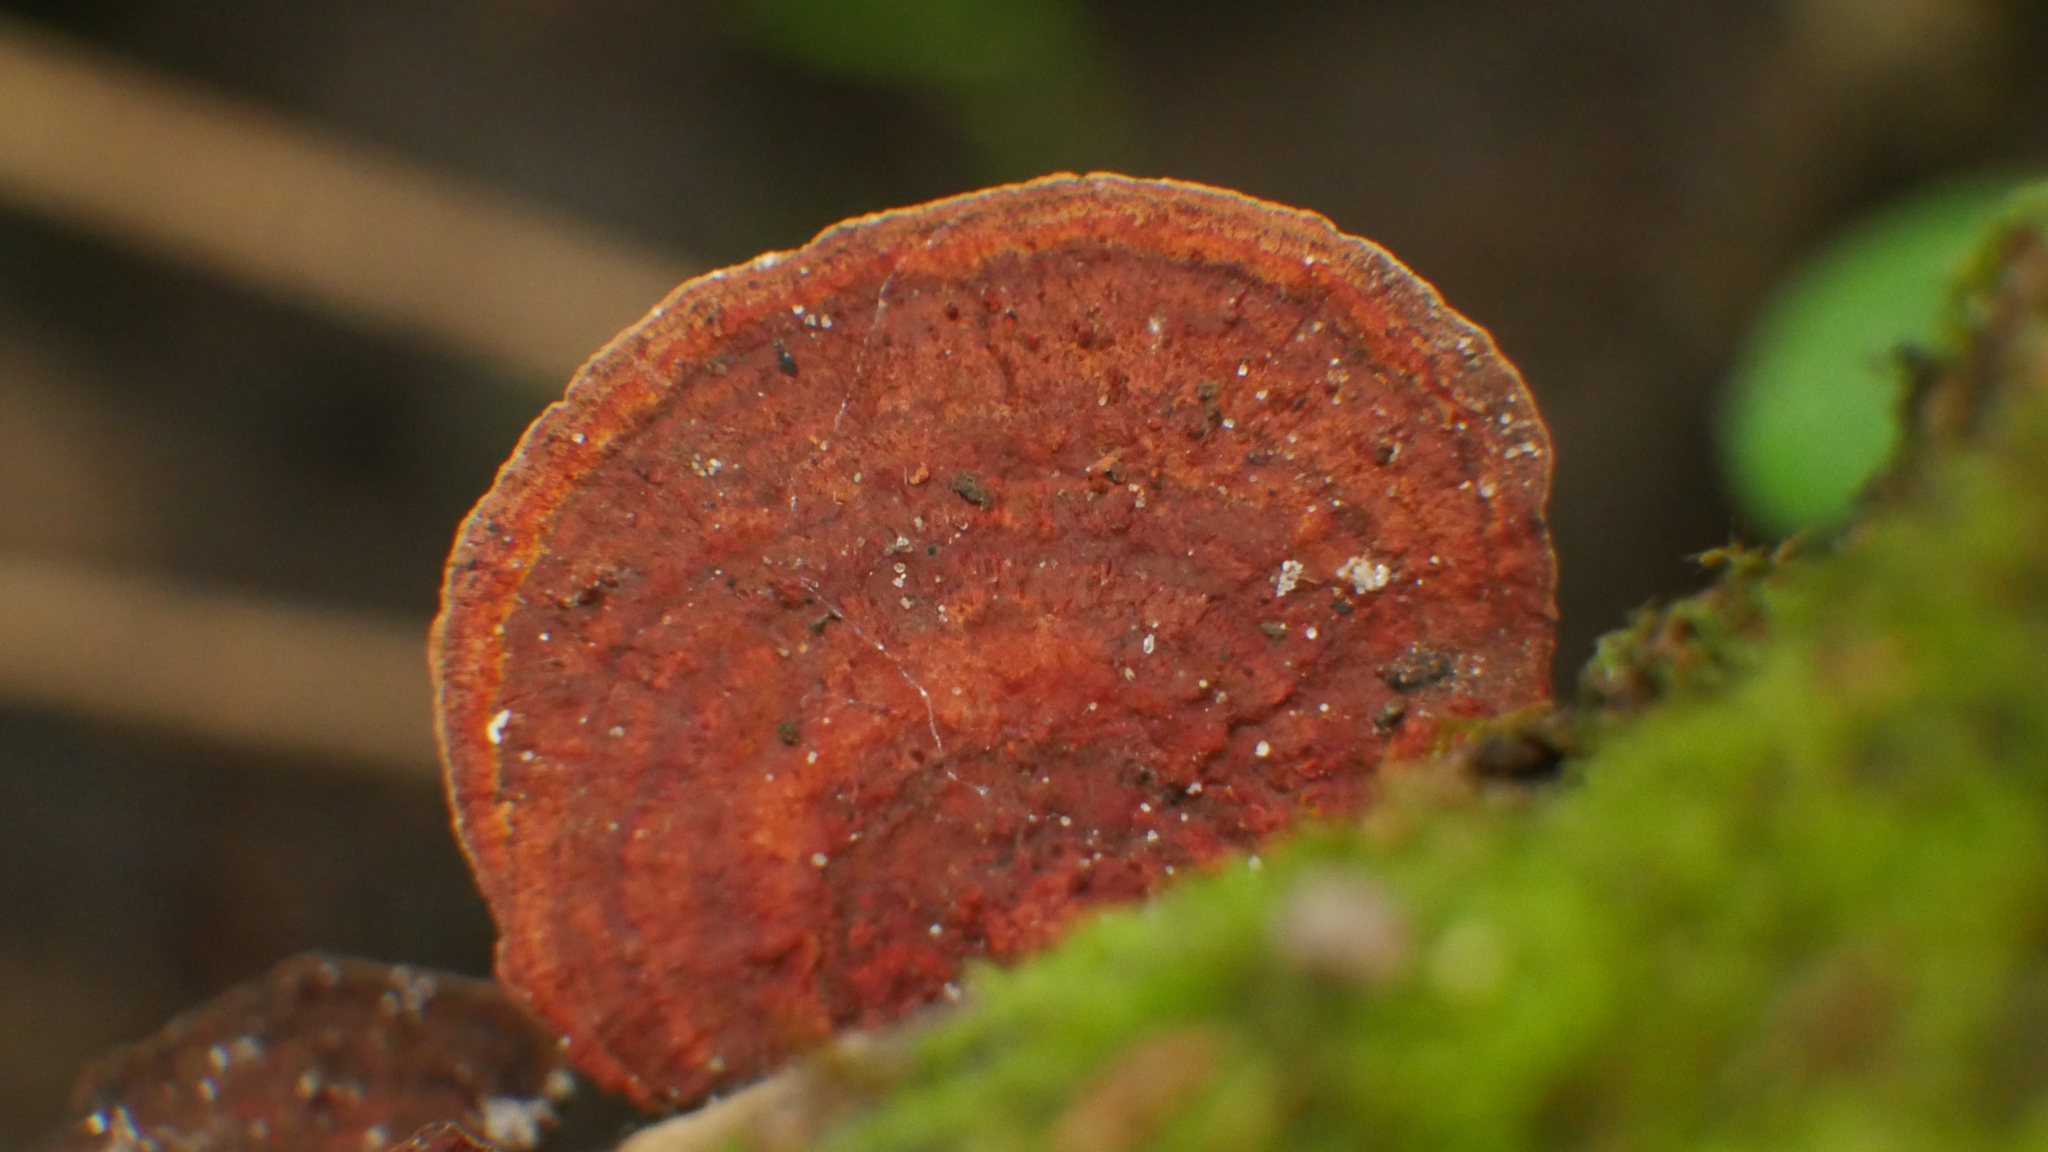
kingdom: Fungi
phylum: Basidiomycota
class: Agaricomycetes
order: Polyporales
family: Polyporaceae
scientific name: Polyporaceae
